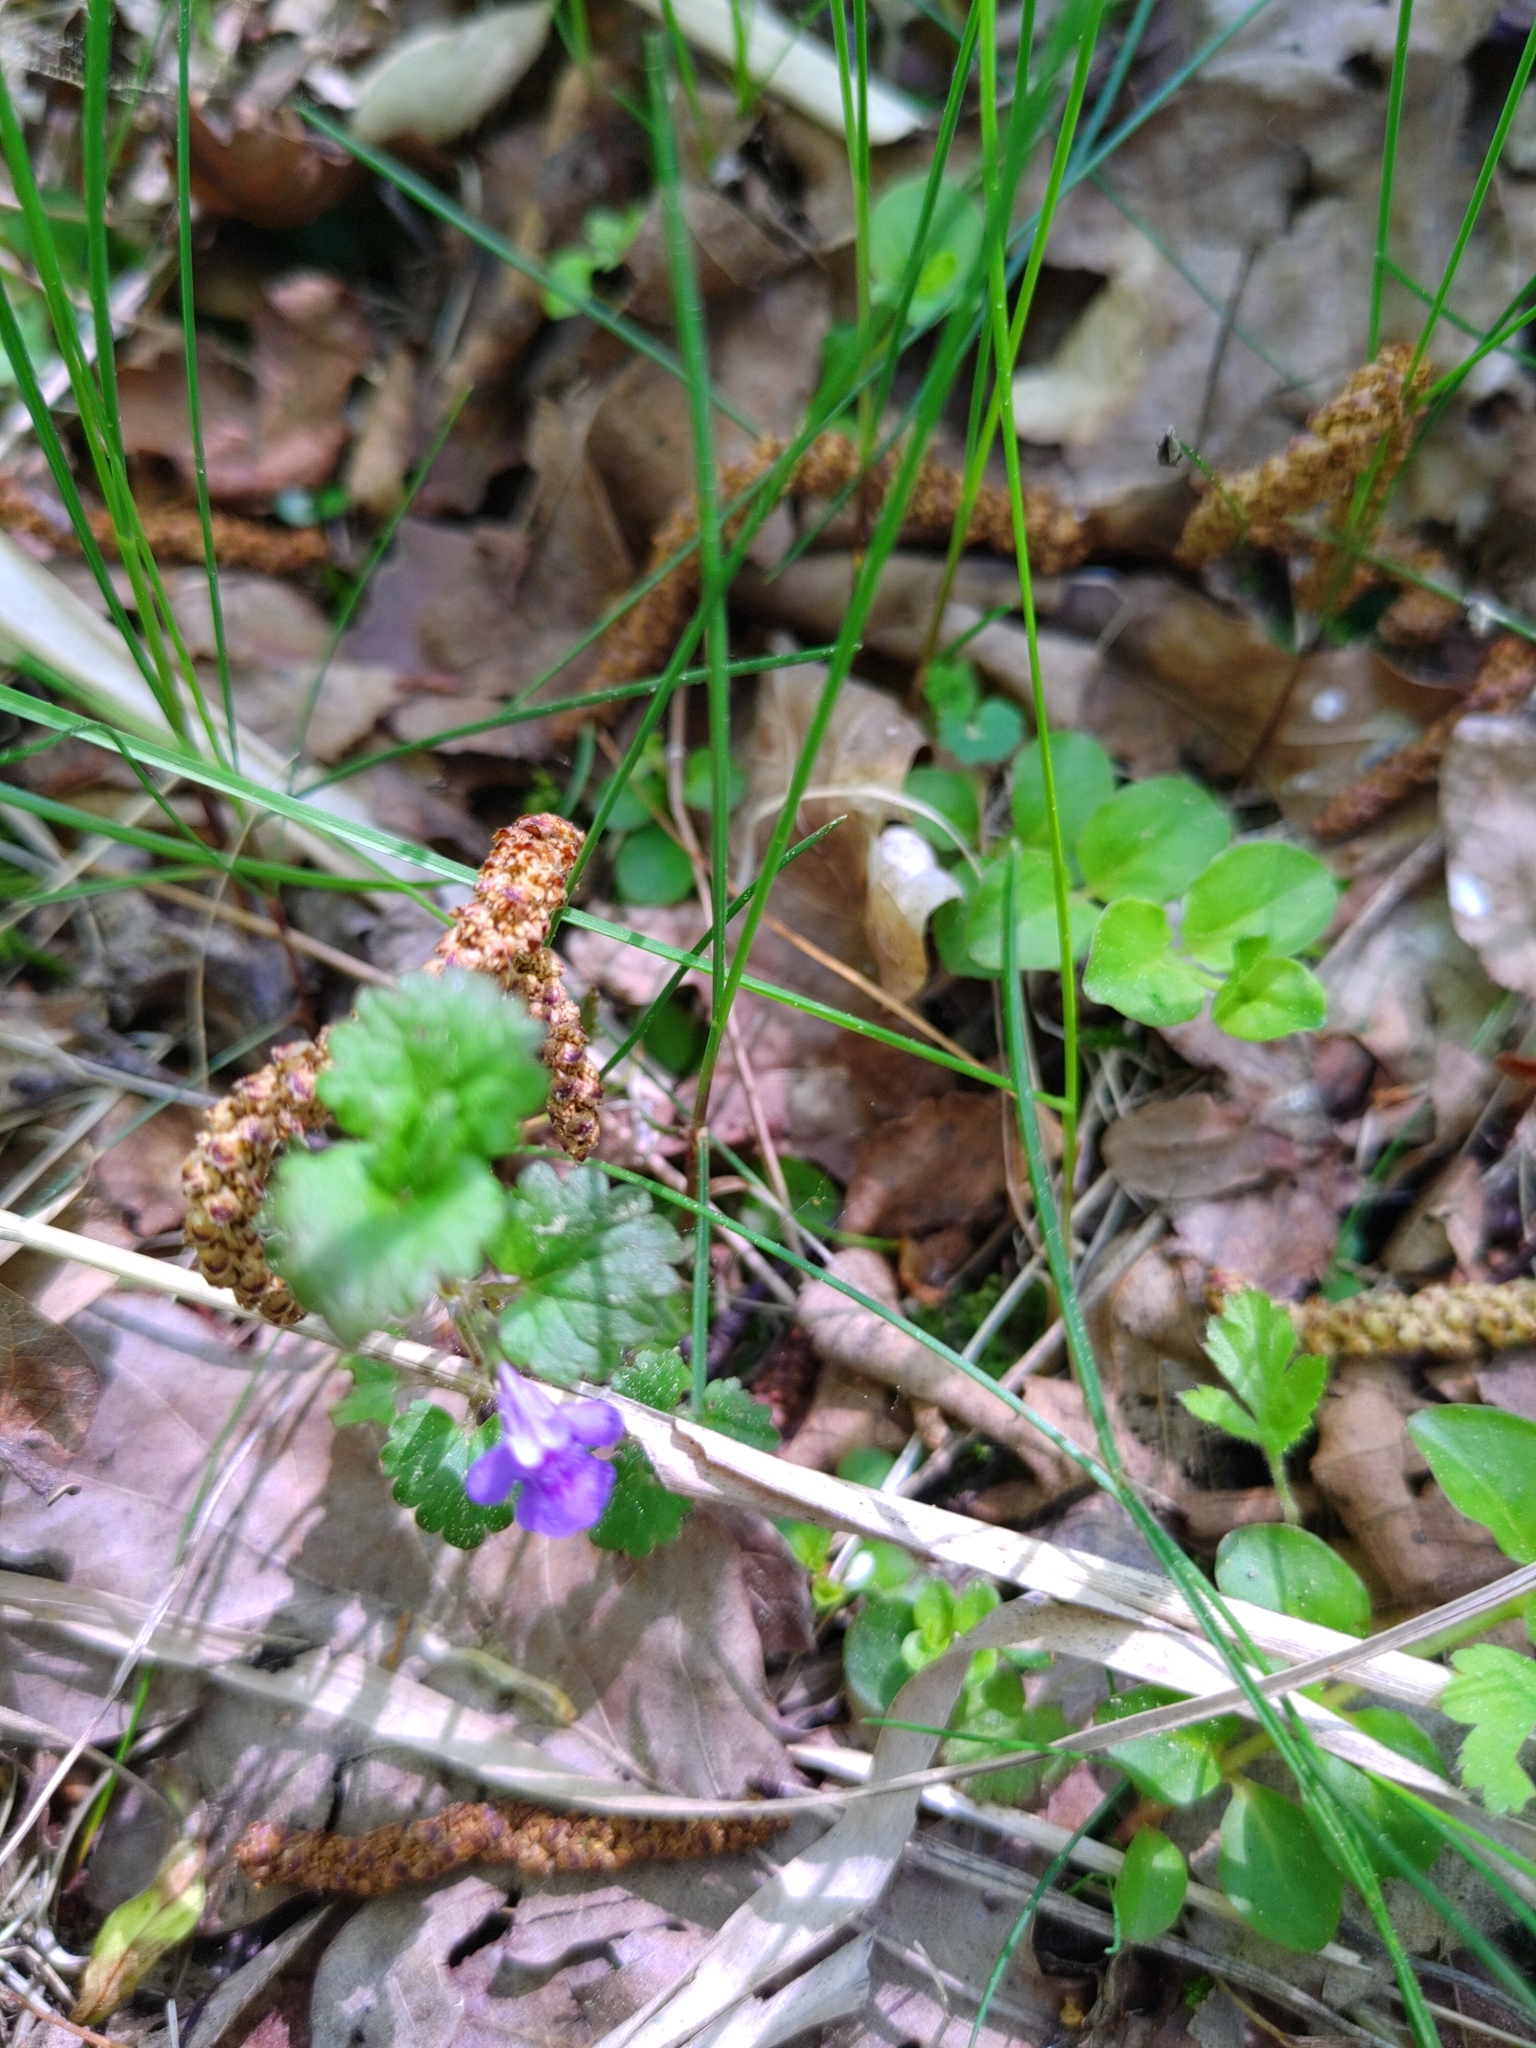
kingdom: Plantae
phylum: Tracheophyta
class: Magnoliopsida
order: Lamiales
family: Lamiaceae
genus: Glechoma
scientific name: Glechoma hederacea
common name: Ground ivy
